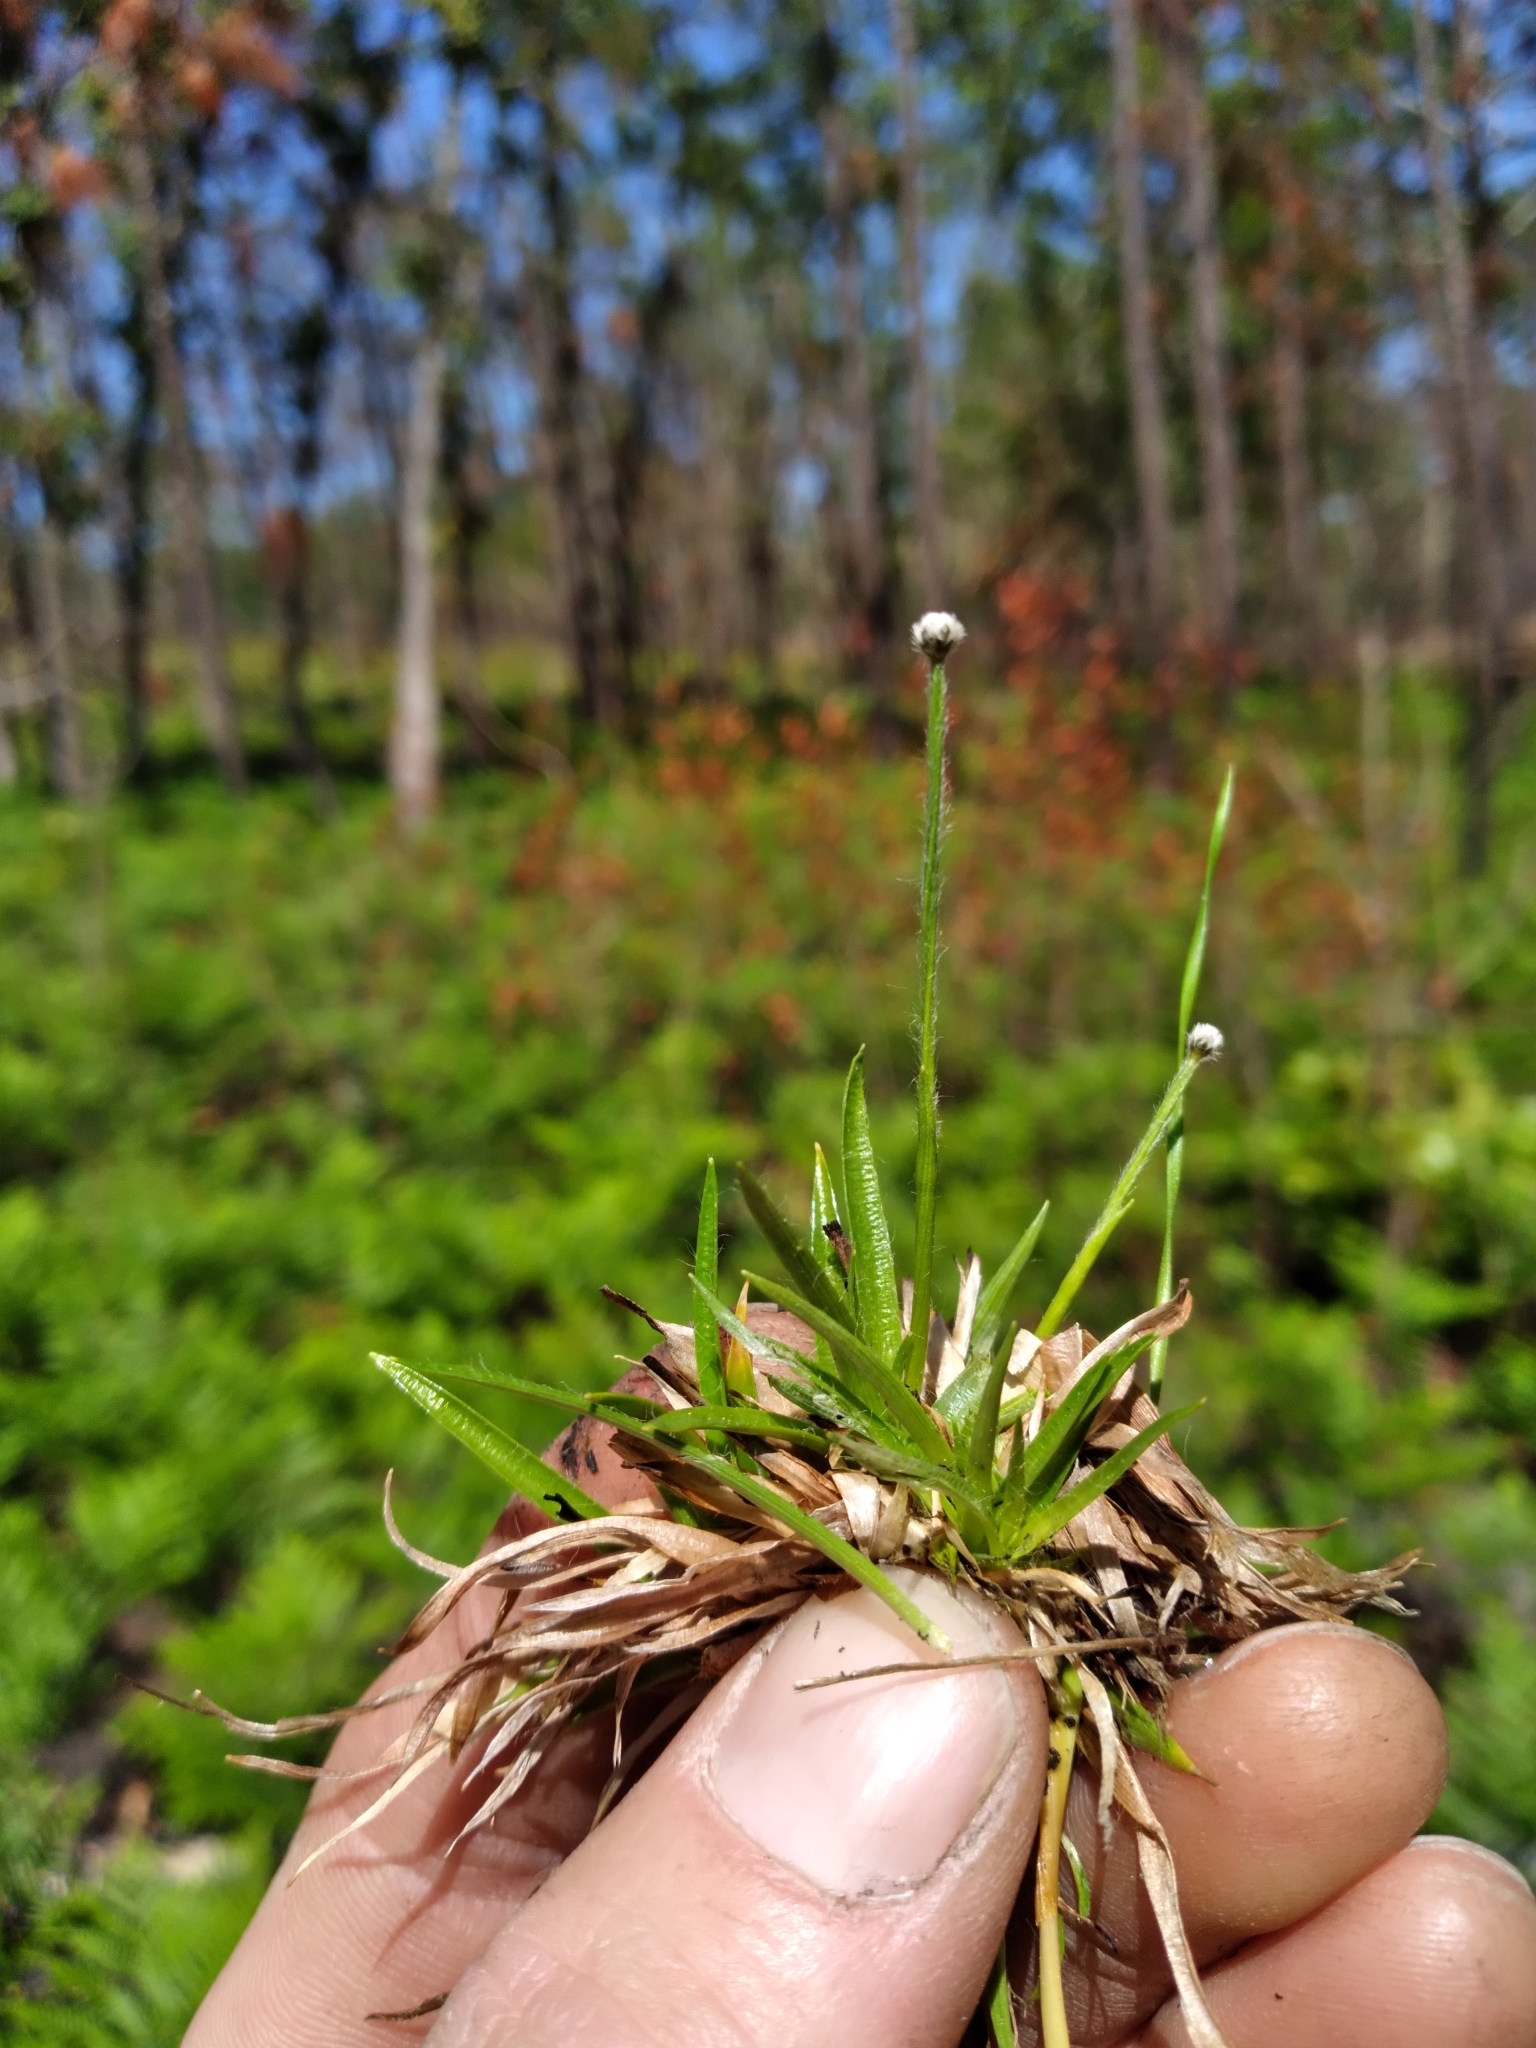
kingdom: Plantae
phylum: Tracheophyta
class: Liliopsida
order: Poales
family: Eriocaulaceae
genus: Paepalanthus
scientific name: Paepalanthus anceps
